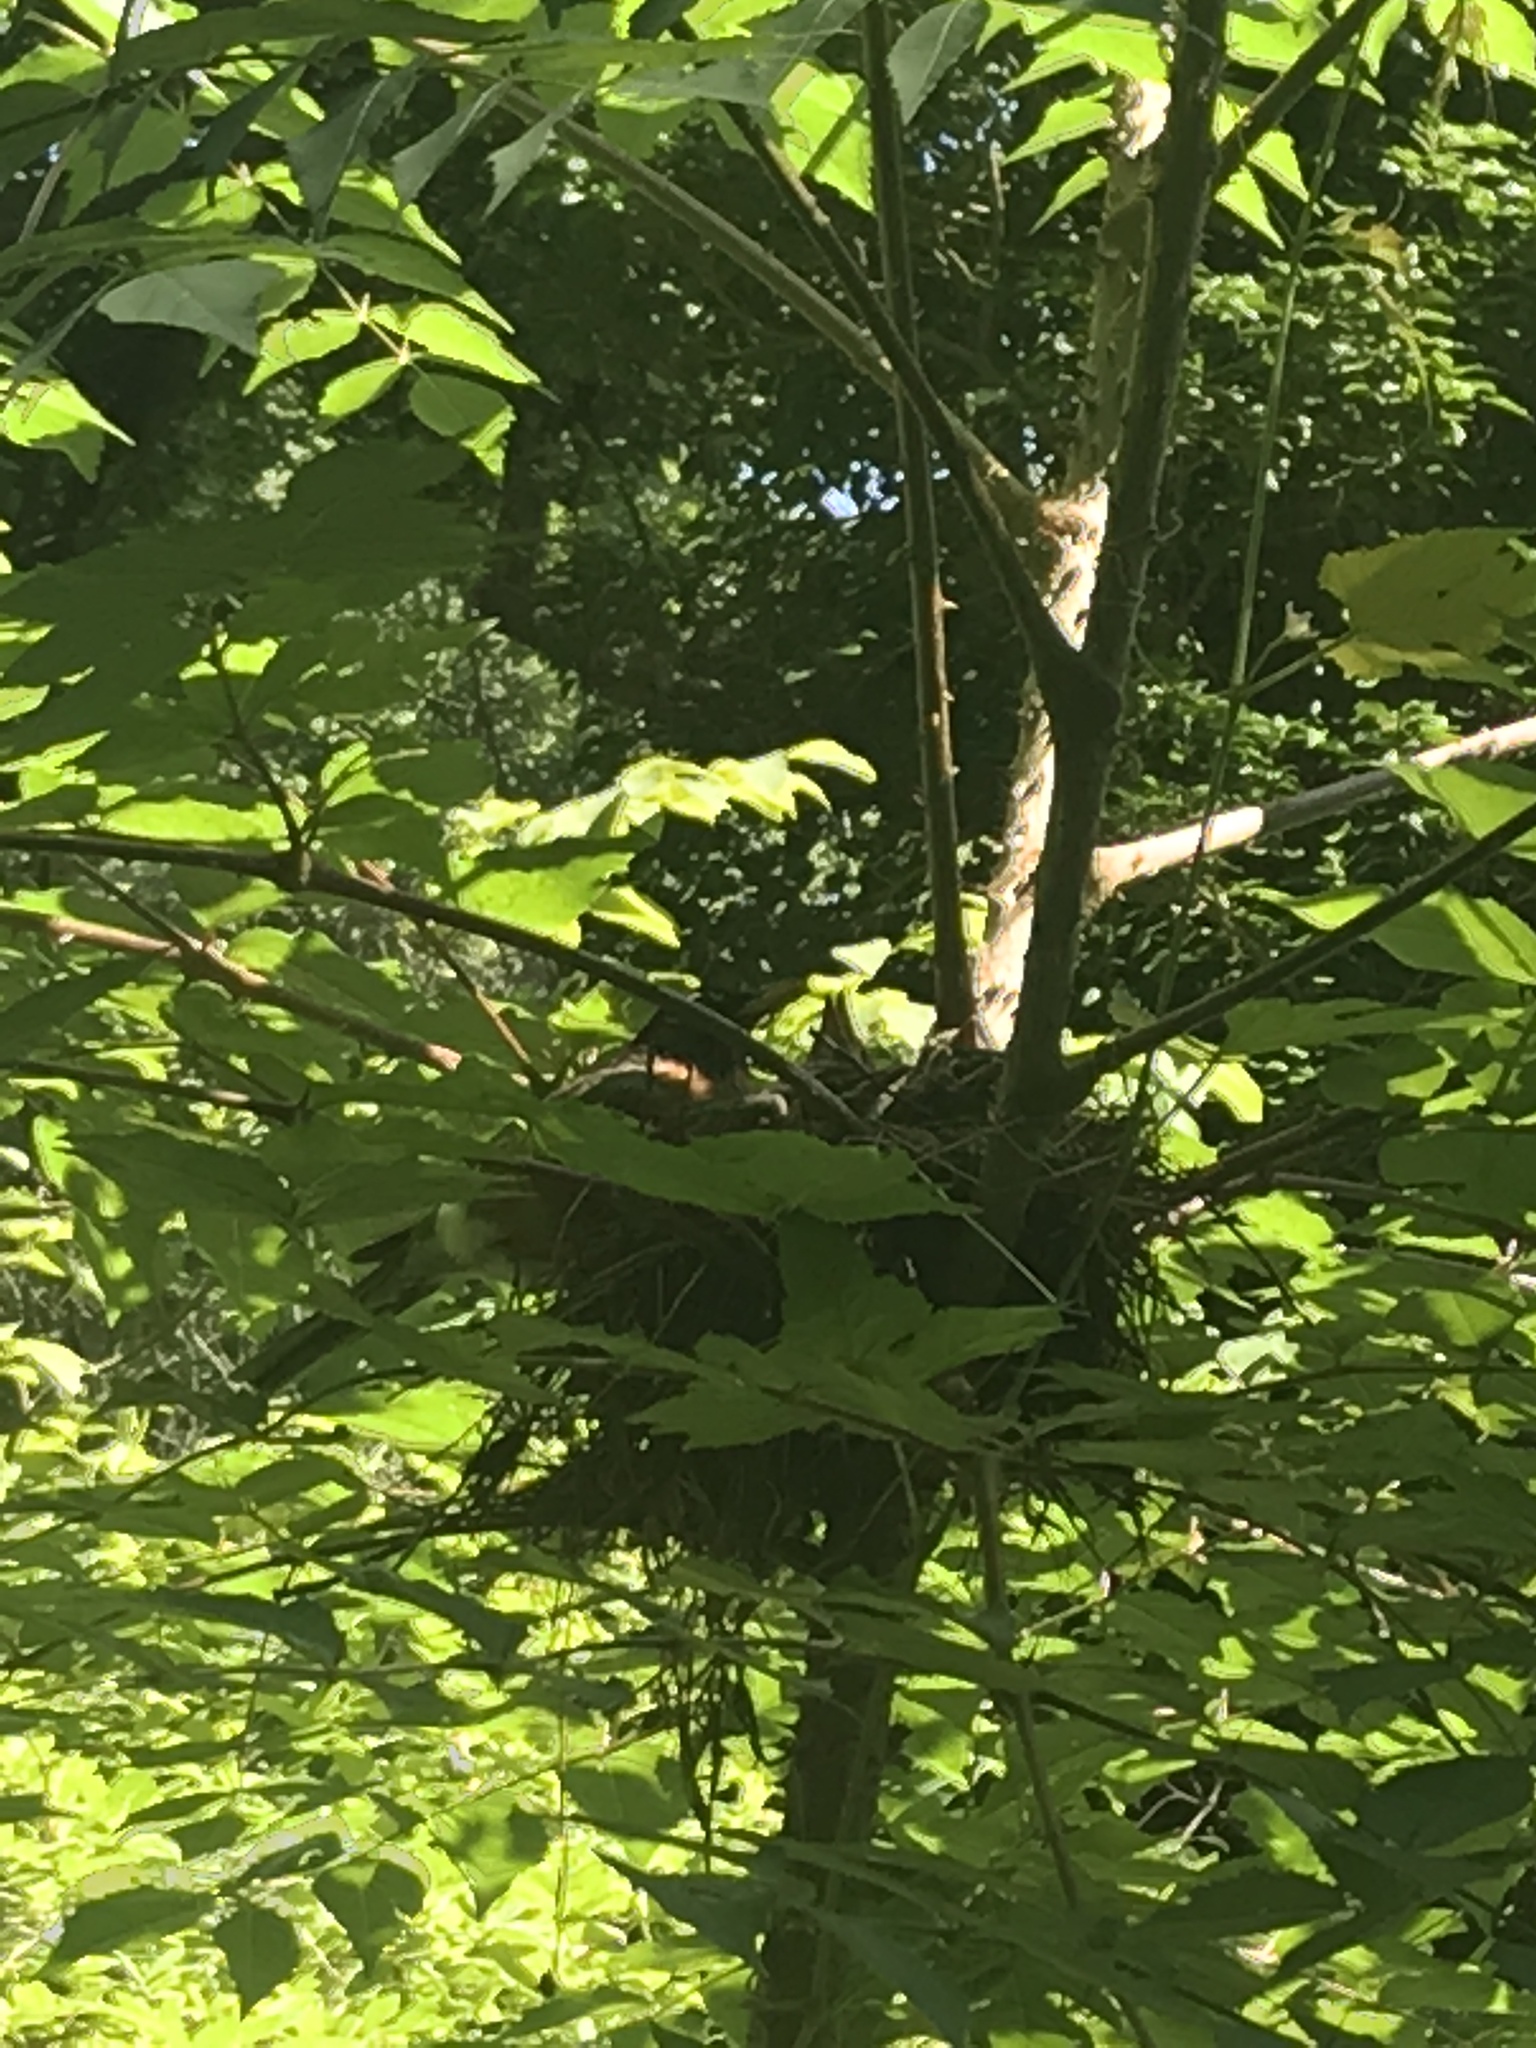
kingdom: Animalia
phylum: Chordata
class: Aves
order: Passeriformes
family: Turdidae
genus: Turdus
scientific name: Turdus migratorius
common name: American robin
